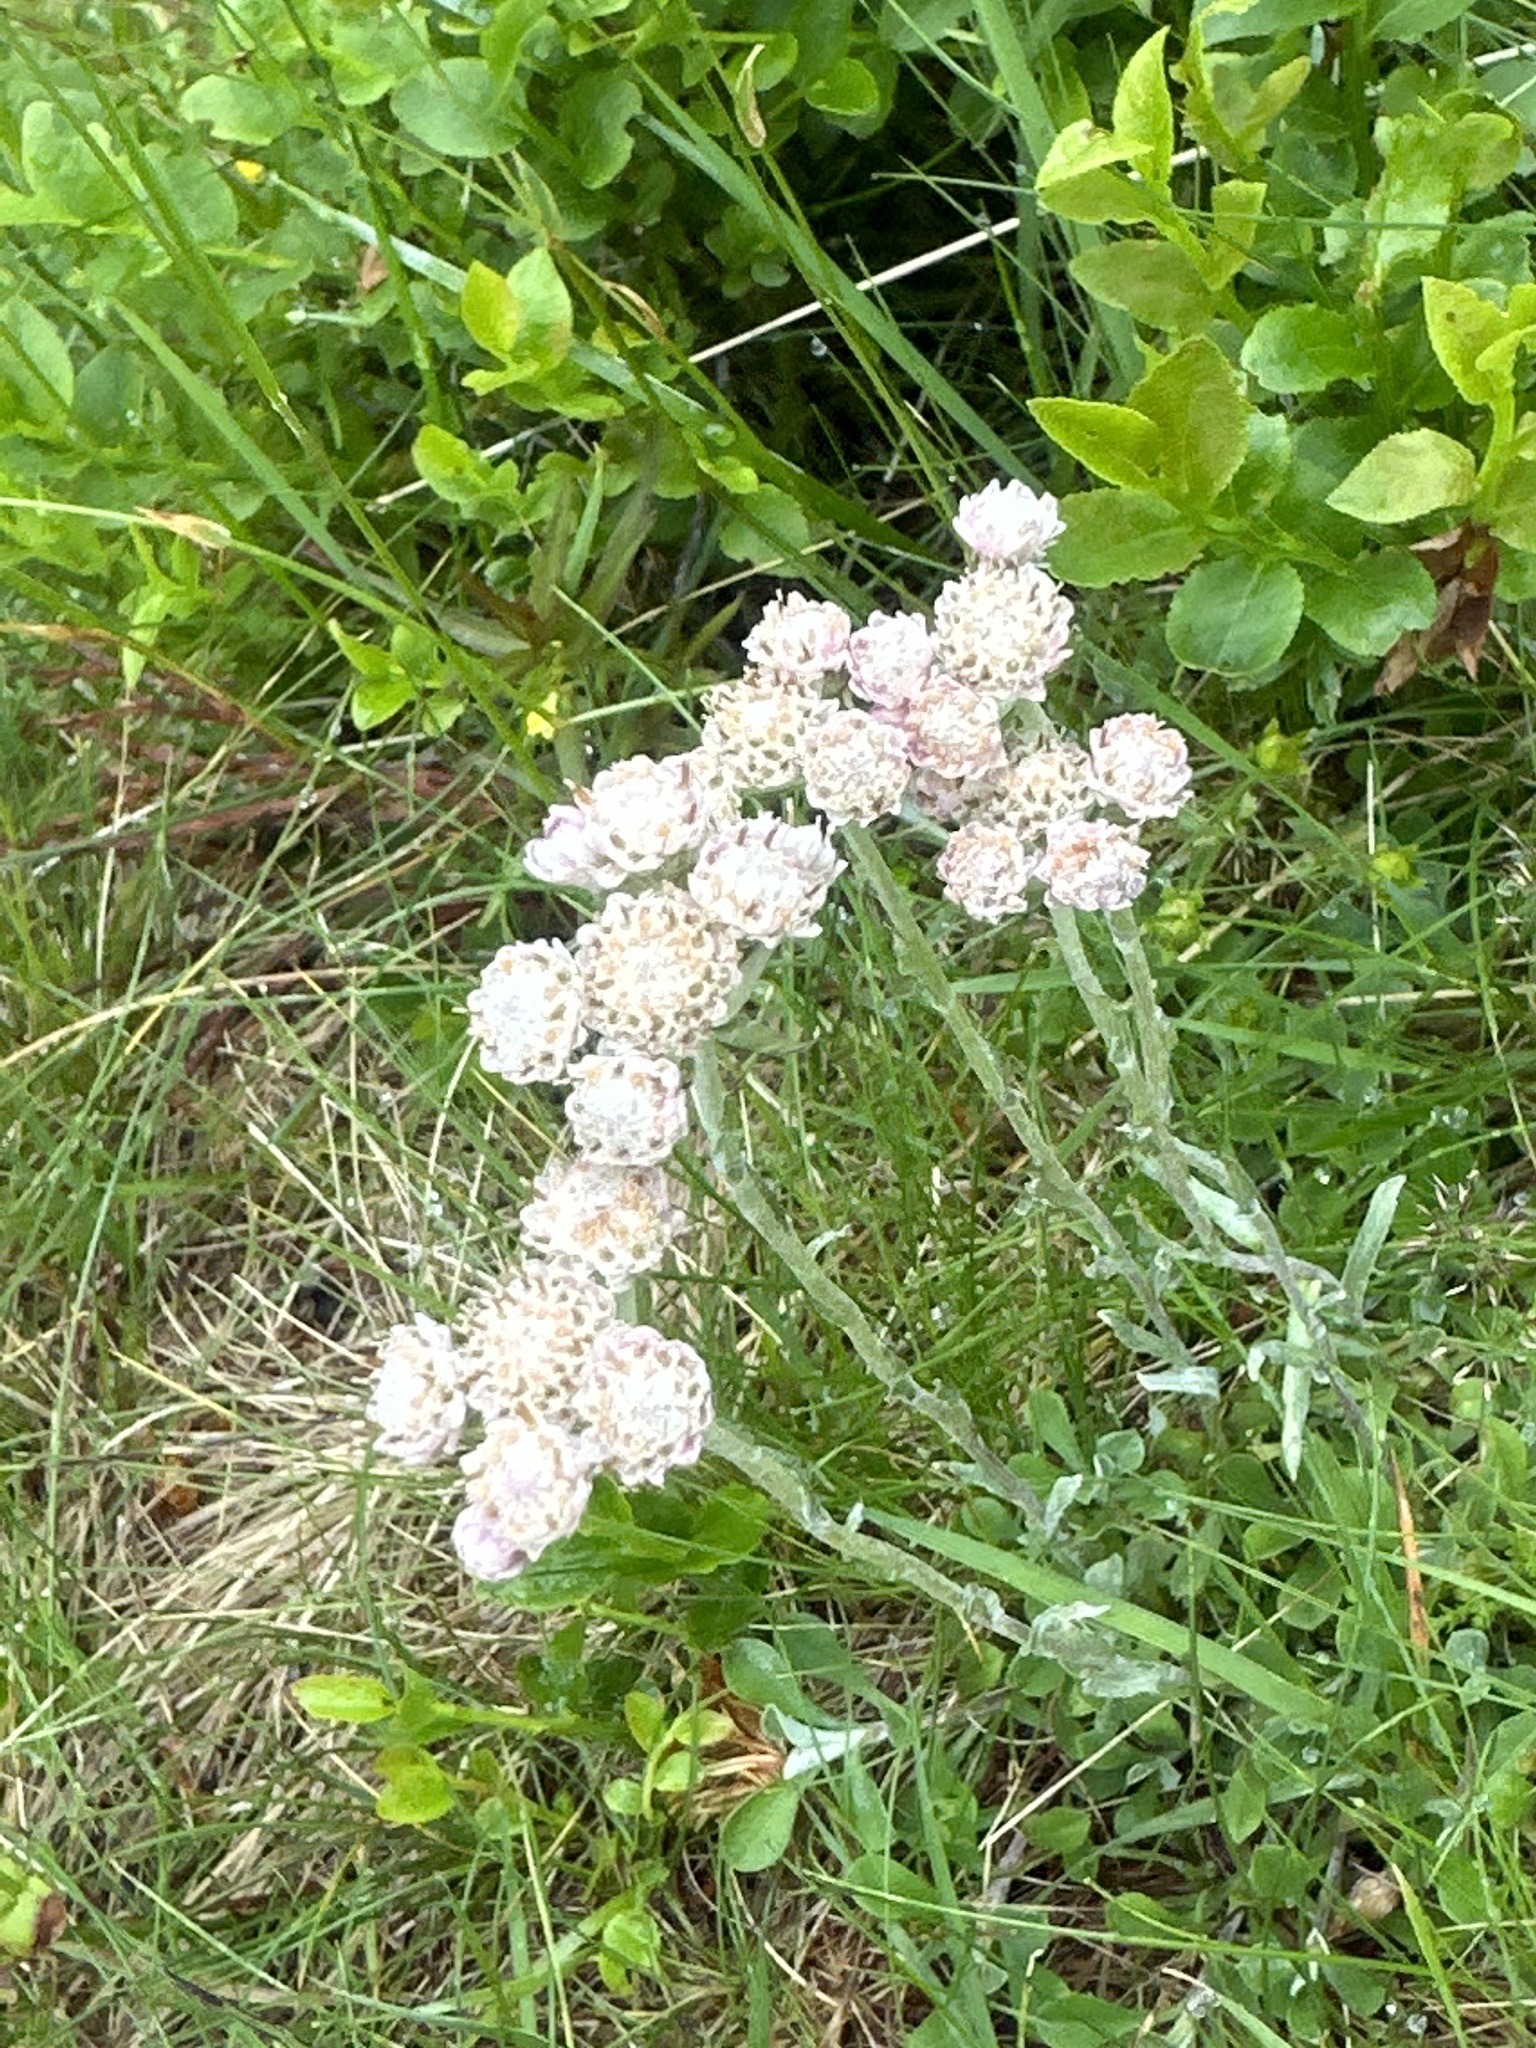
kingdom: Plantae
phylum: Tracheophyta
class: Magnoliopsida
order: Asterales
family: Asteraceae
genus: Antennaria
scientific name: Antennaria dioica
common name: Mountain everlasting
